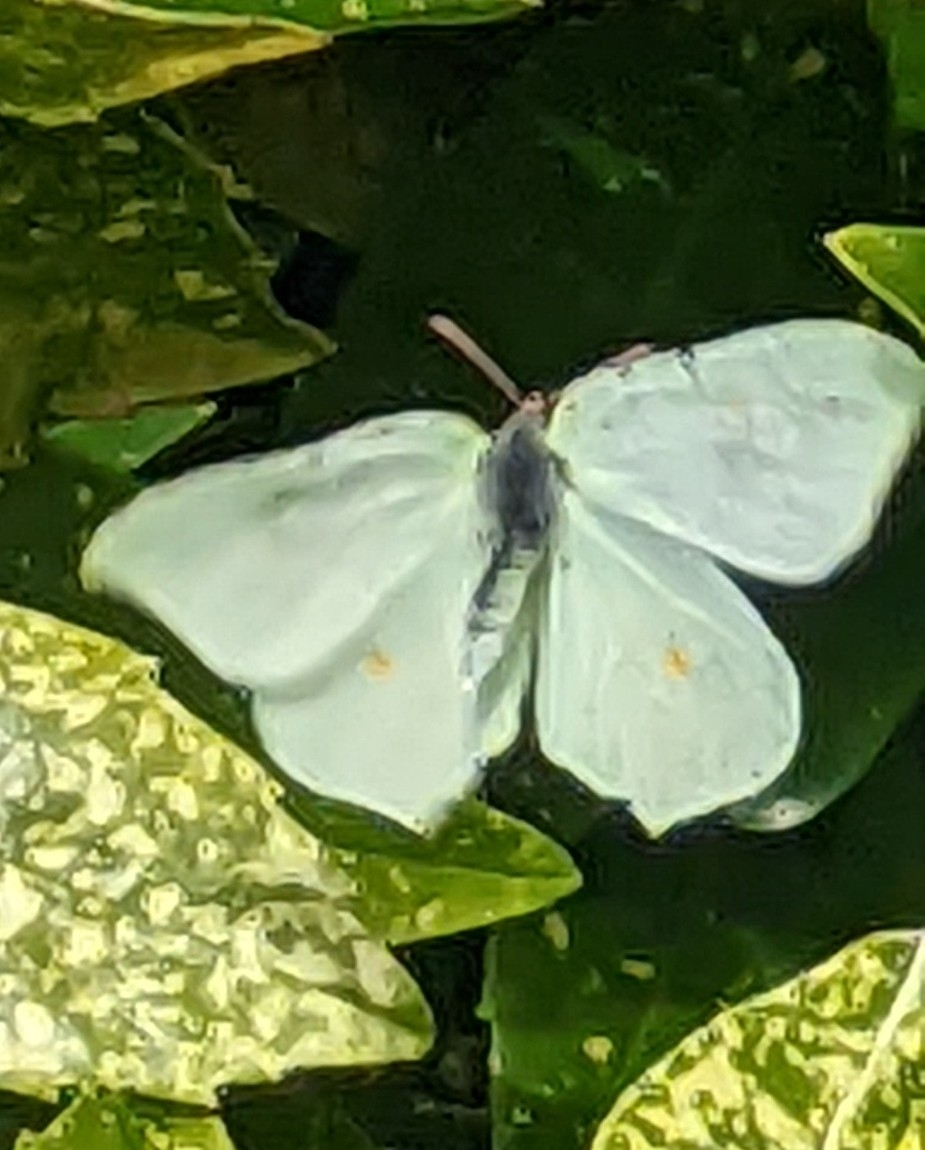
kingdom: Animalia
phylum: Arthropoda
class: Insecta
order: Lepidoptera
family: Pieridae
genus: Gonepteryx
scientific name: Gonepteryx rhamni
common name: Brimstone
